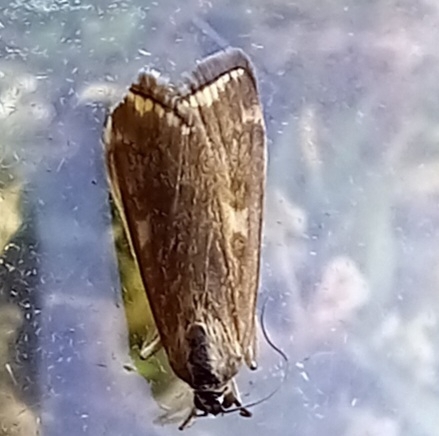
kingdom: Animalia
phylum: Arthropoda
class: Insecta
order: Lepidoptera
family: Crambidae
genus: Loxostege
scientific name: Loxostege sticticalis
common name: Crambid moth
